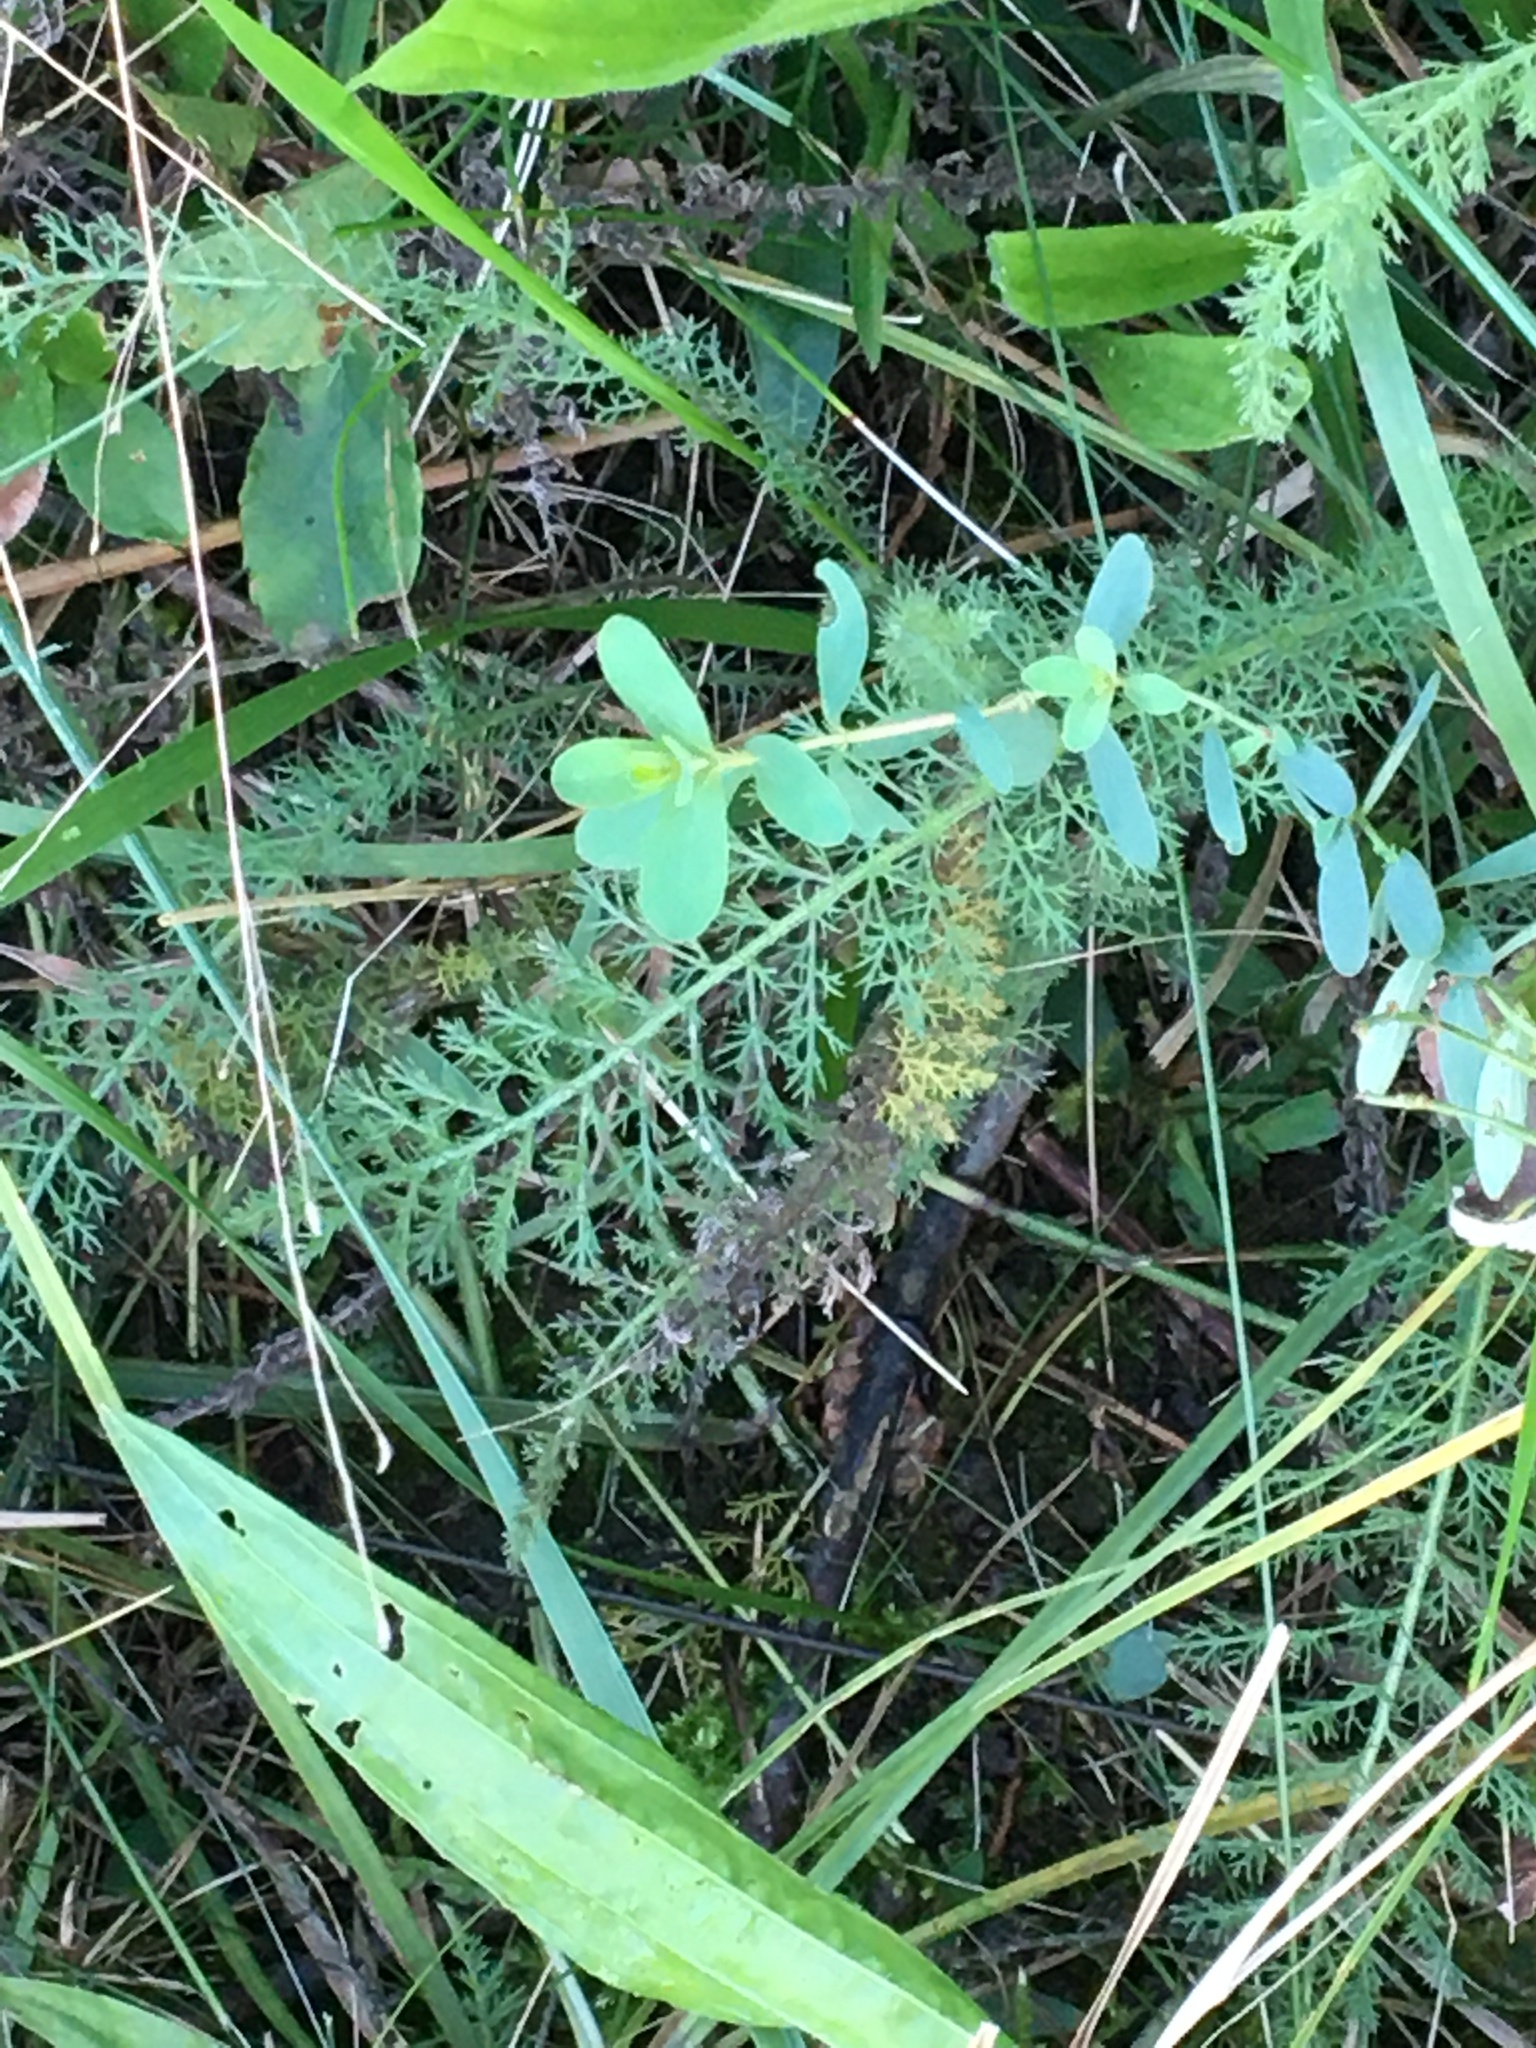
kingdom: Plantae
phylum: Tracheophyta
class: Magnoliopsida
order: Asterales
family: Asteraceae
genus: Achillea
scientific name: Achillea millefolium
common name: Yarrow
